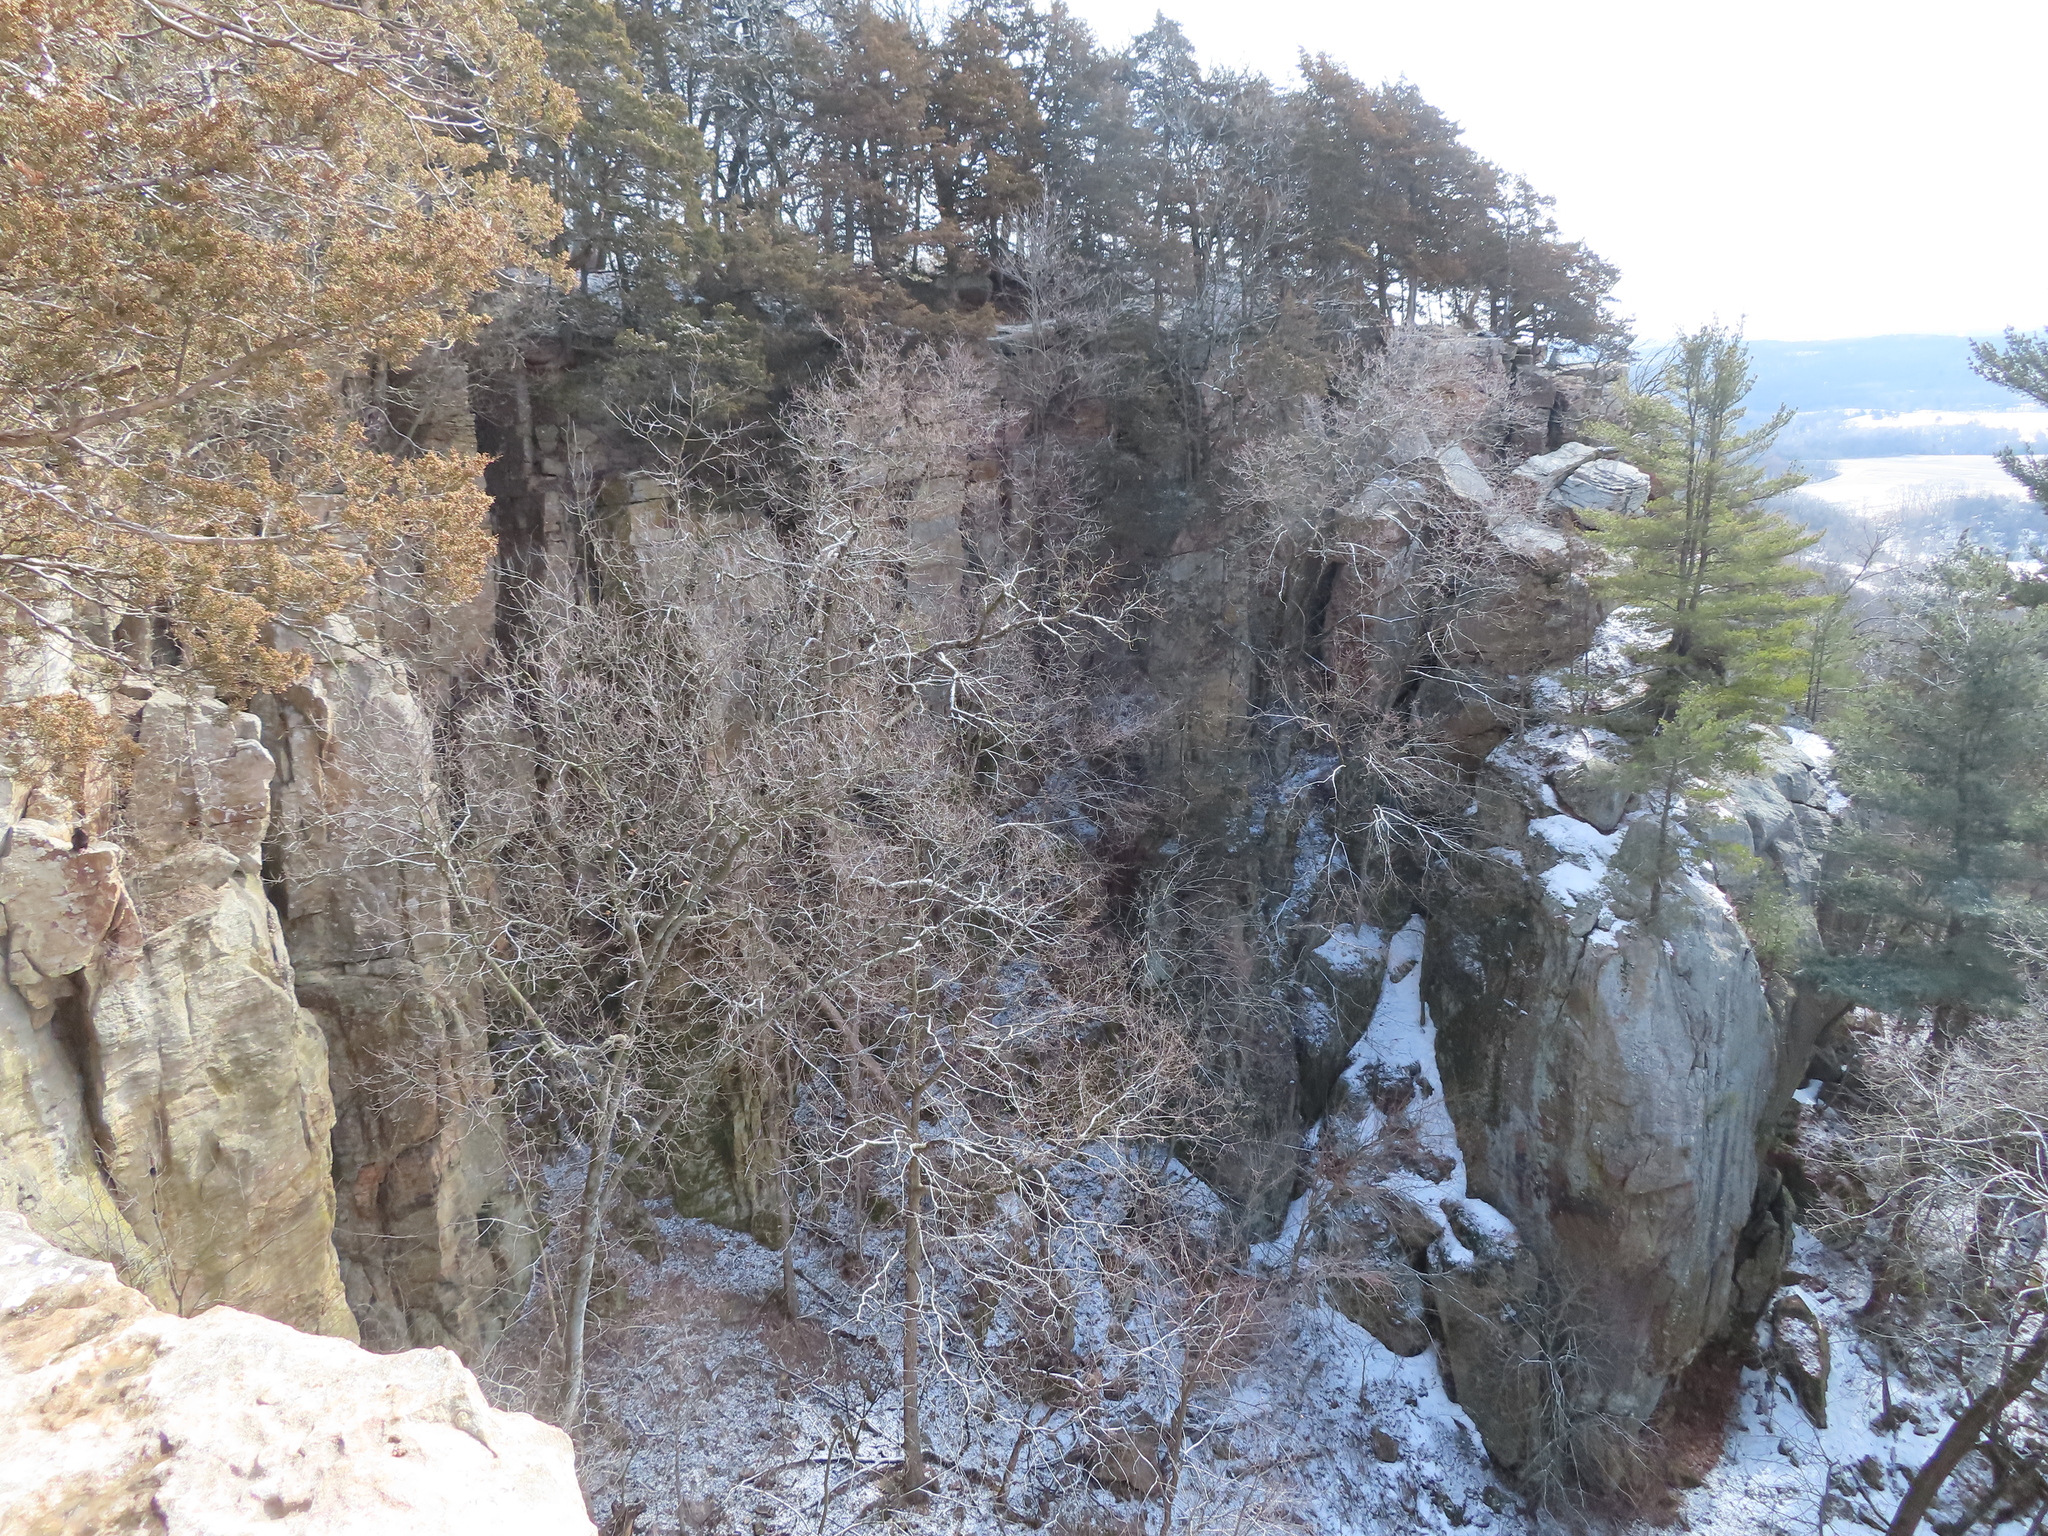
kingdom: Plantae
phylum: Tracheophyta
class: Pinopsida
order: Pinales
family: Pinaceae
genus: Pinus
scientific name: Pinus strobus
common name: Weymouth pine
